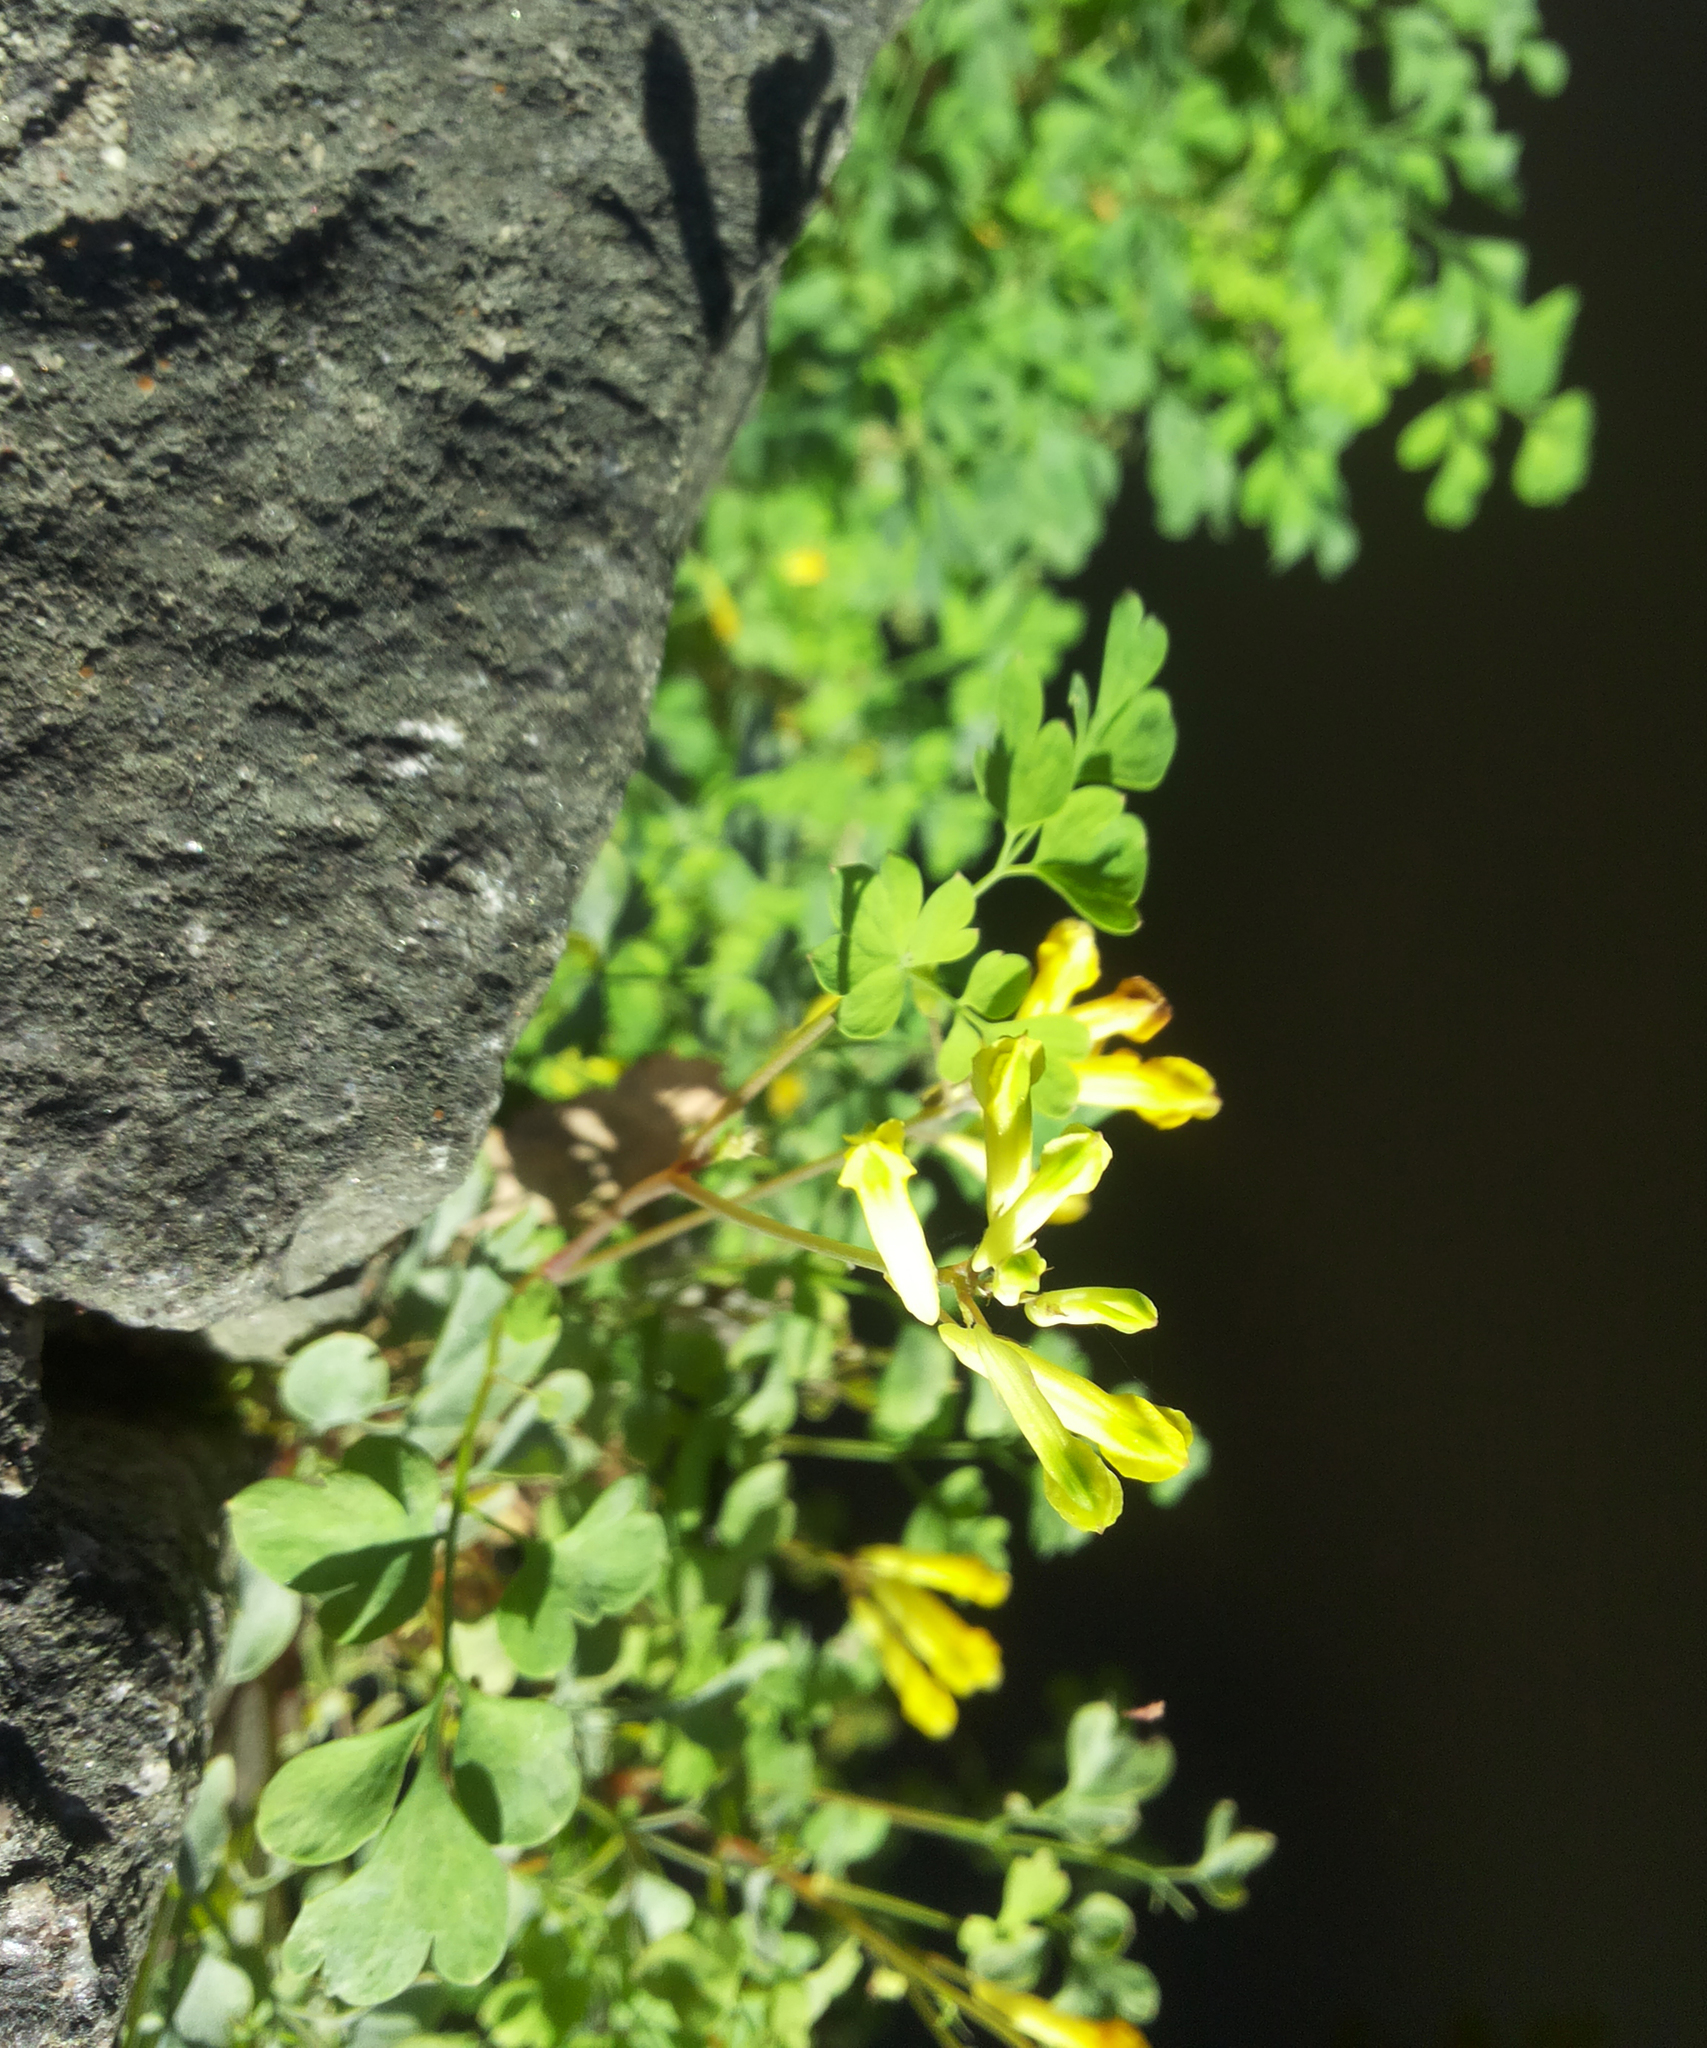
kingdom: Plantae
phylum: Tracheophyta
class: Magnoliopsida
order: Ranunculales
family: Papaveraceae
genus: Pseudofumaria
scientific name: Pseudofumaria lutea
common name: Yellow corydalis
